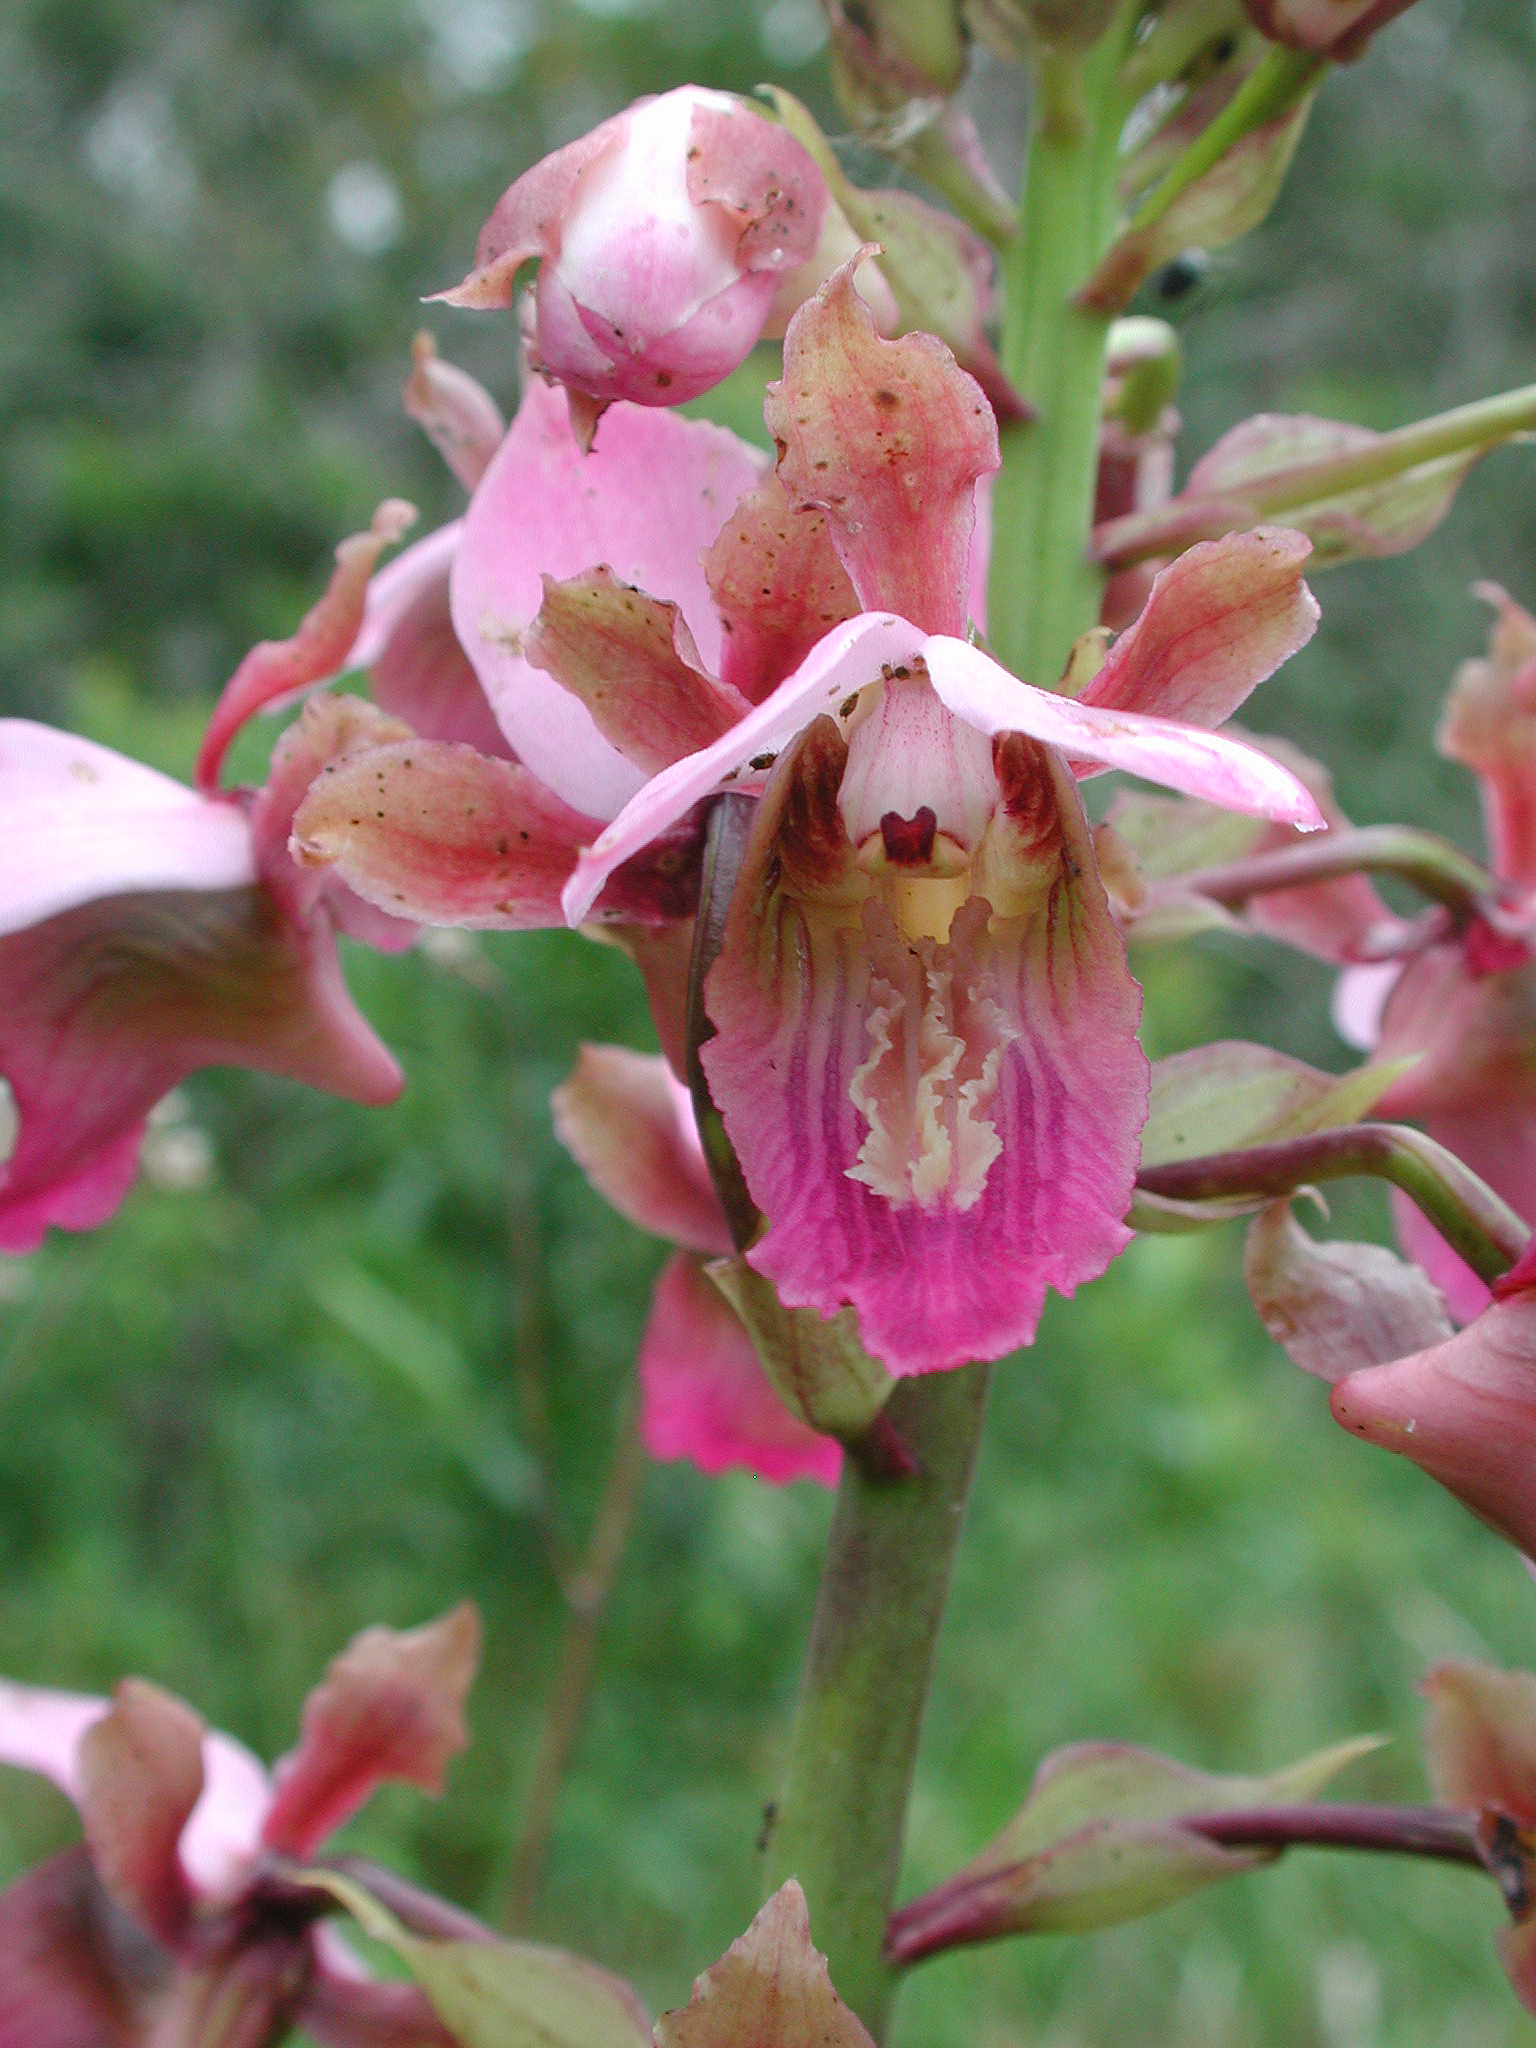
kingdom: Plantae
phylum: Tracheophyta
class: Liliopsida
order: Asparagales
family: Orchidaceae
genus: Eulophia
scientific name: Eulophia horsfallii
